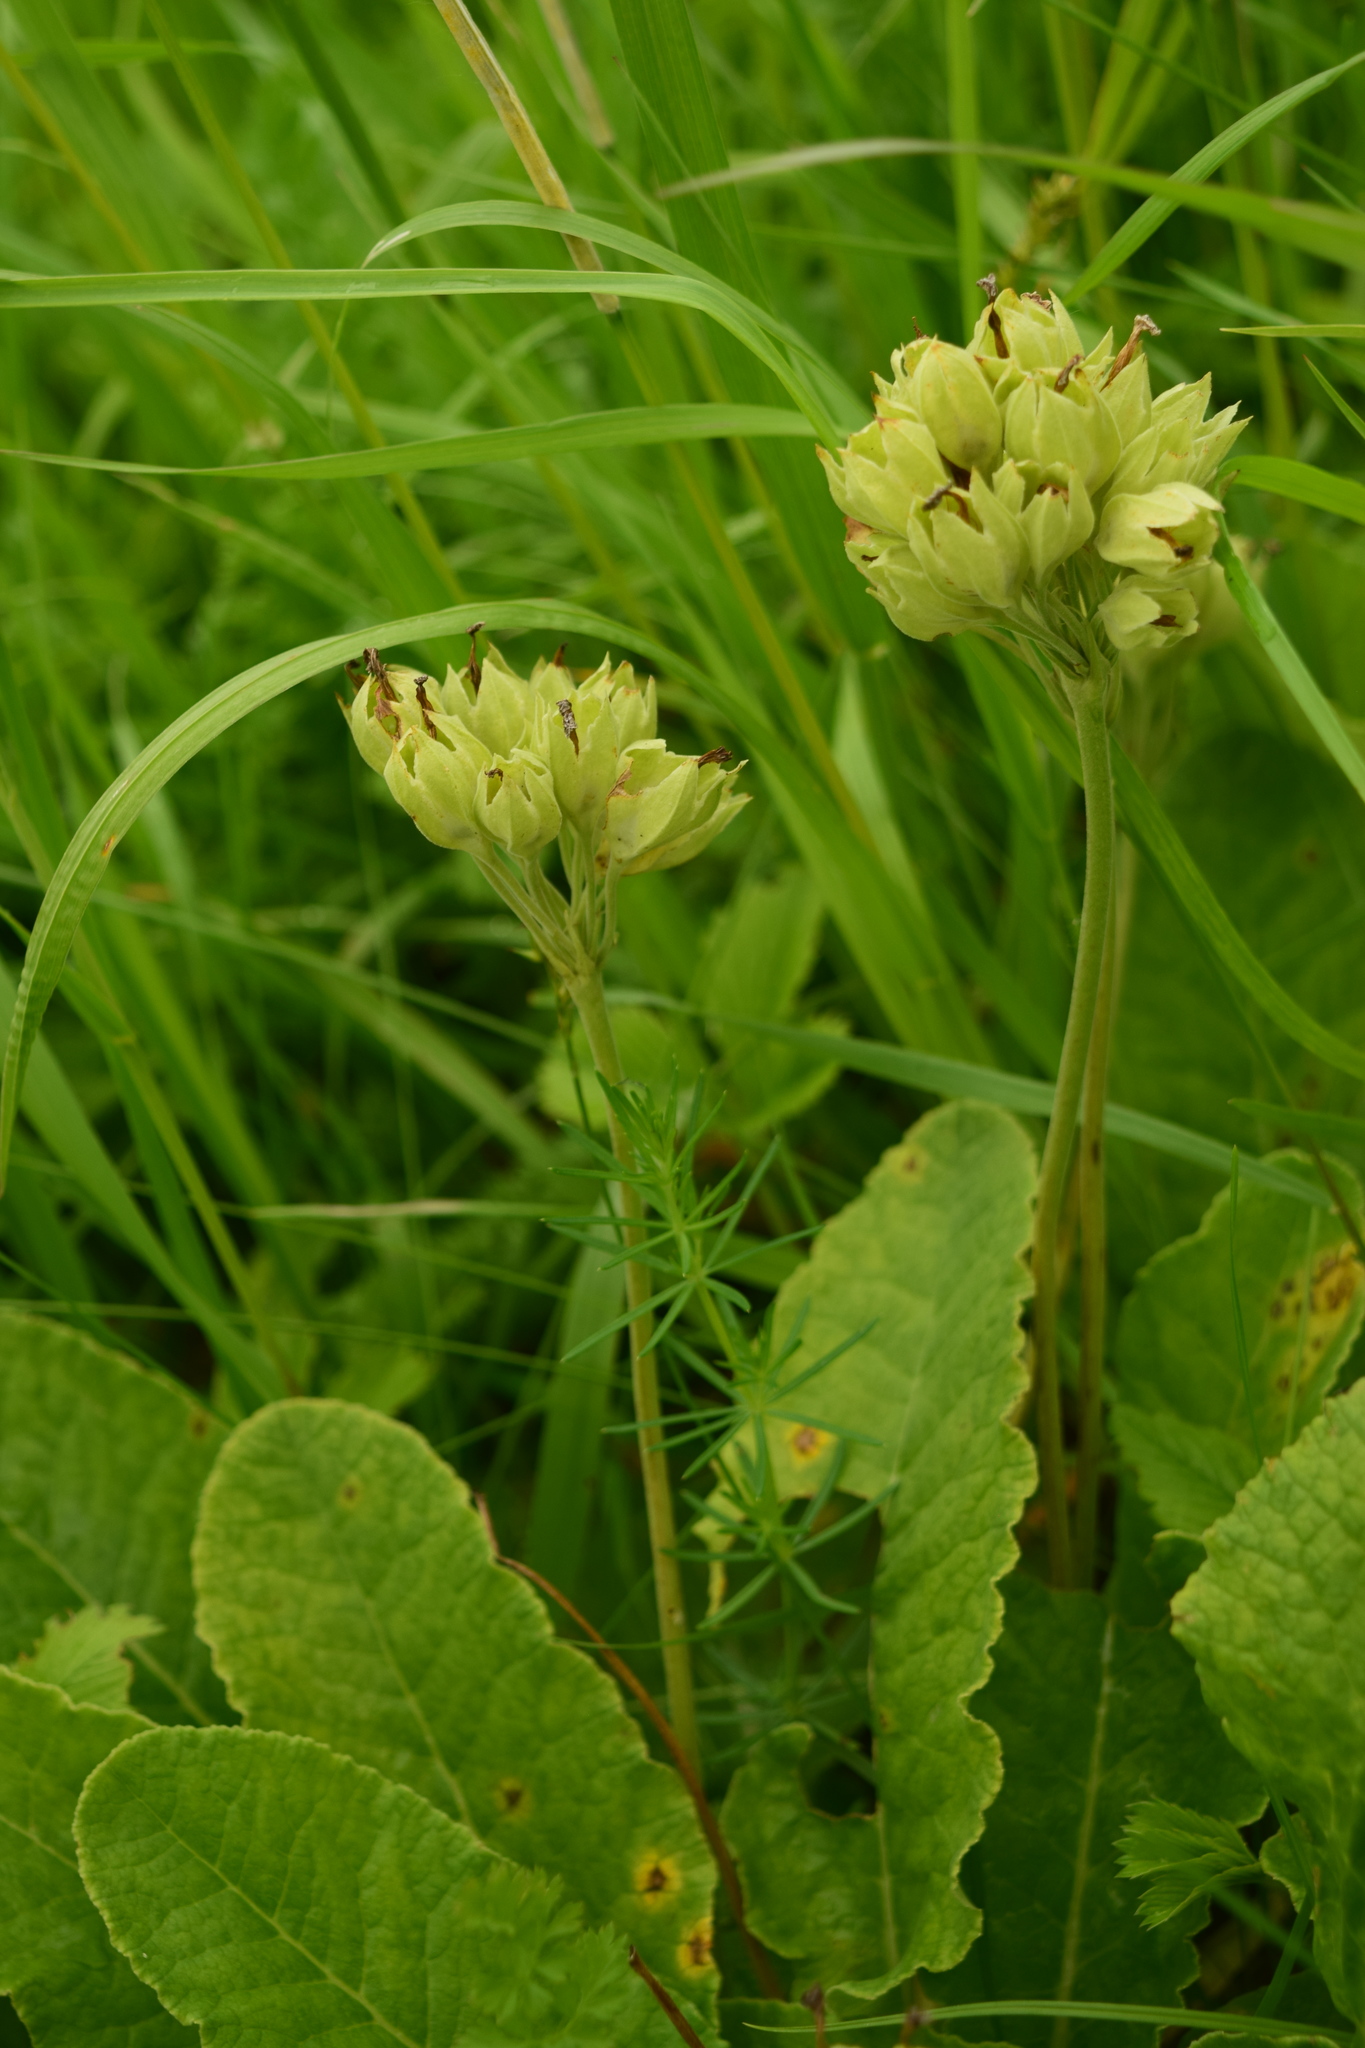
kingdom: Plantae
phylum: Tracheophyta
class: Magnoliopsida
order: Ericales
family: Primulaceae
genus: Primula
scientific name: Primula veris
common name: Cowslip
